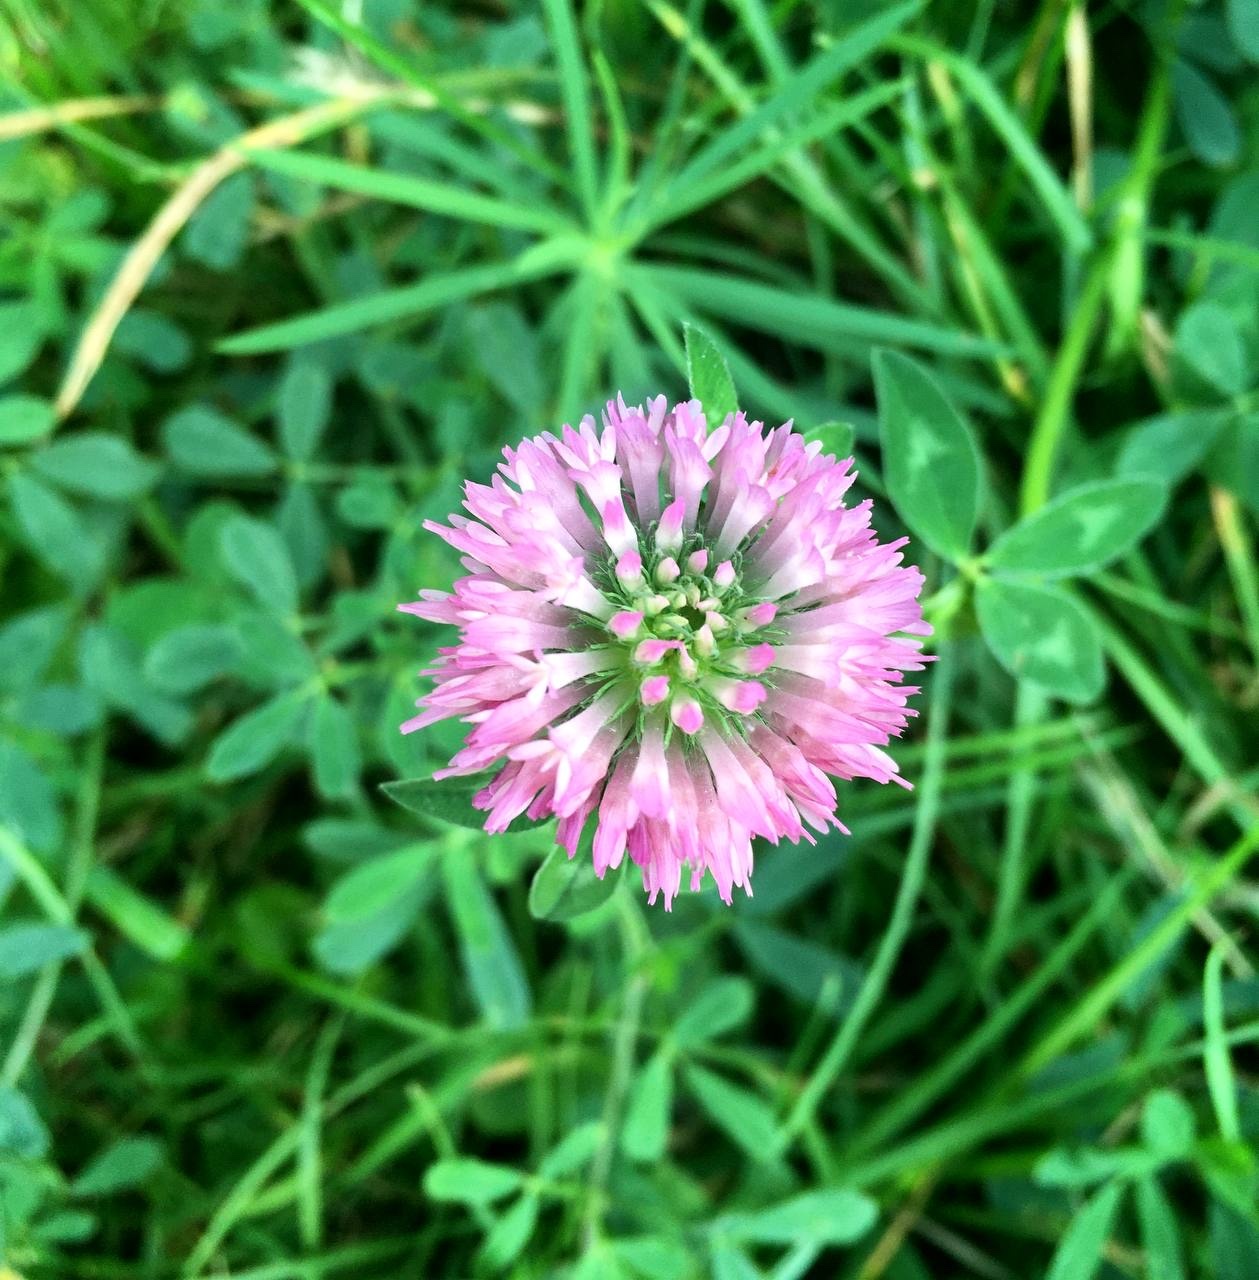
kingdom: Plantae
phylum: Tracheophyta
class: Magnoliopsida
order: Fabales
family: Fabaceae
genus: Trifolium
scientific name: Trifolium pratense
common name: Red clover
